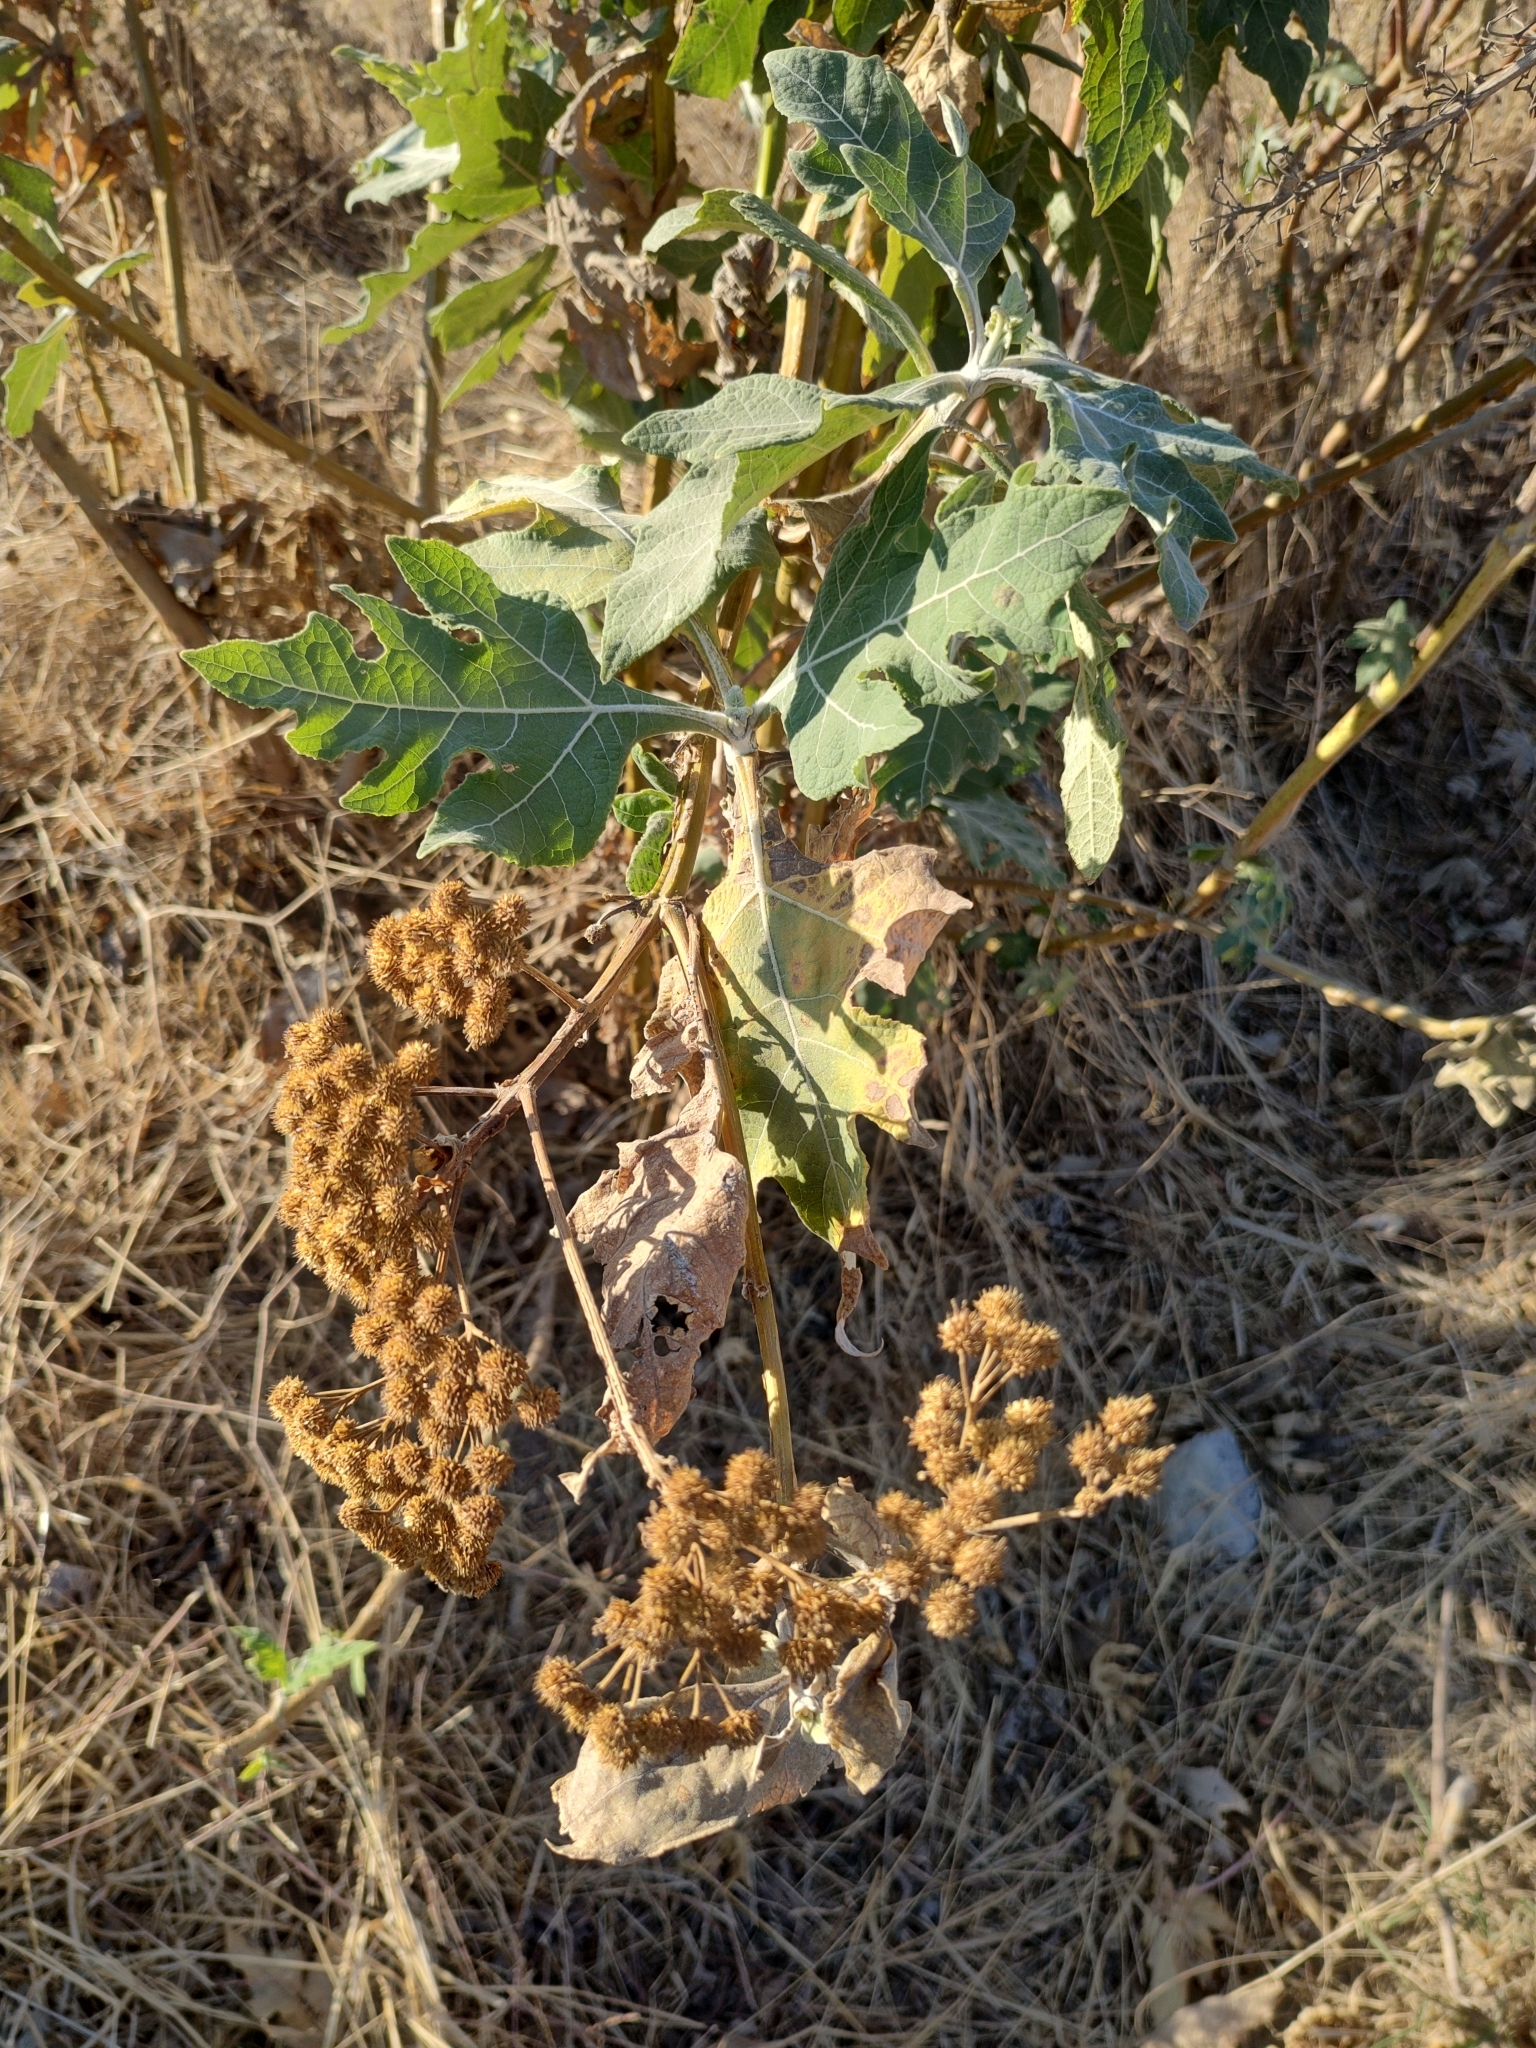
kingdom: Plantae
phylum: Tracheophyta
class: Magnoliopsida
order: Asterales
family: Asteraceae
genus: Verbesina
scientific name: Verbesina fastigiata
